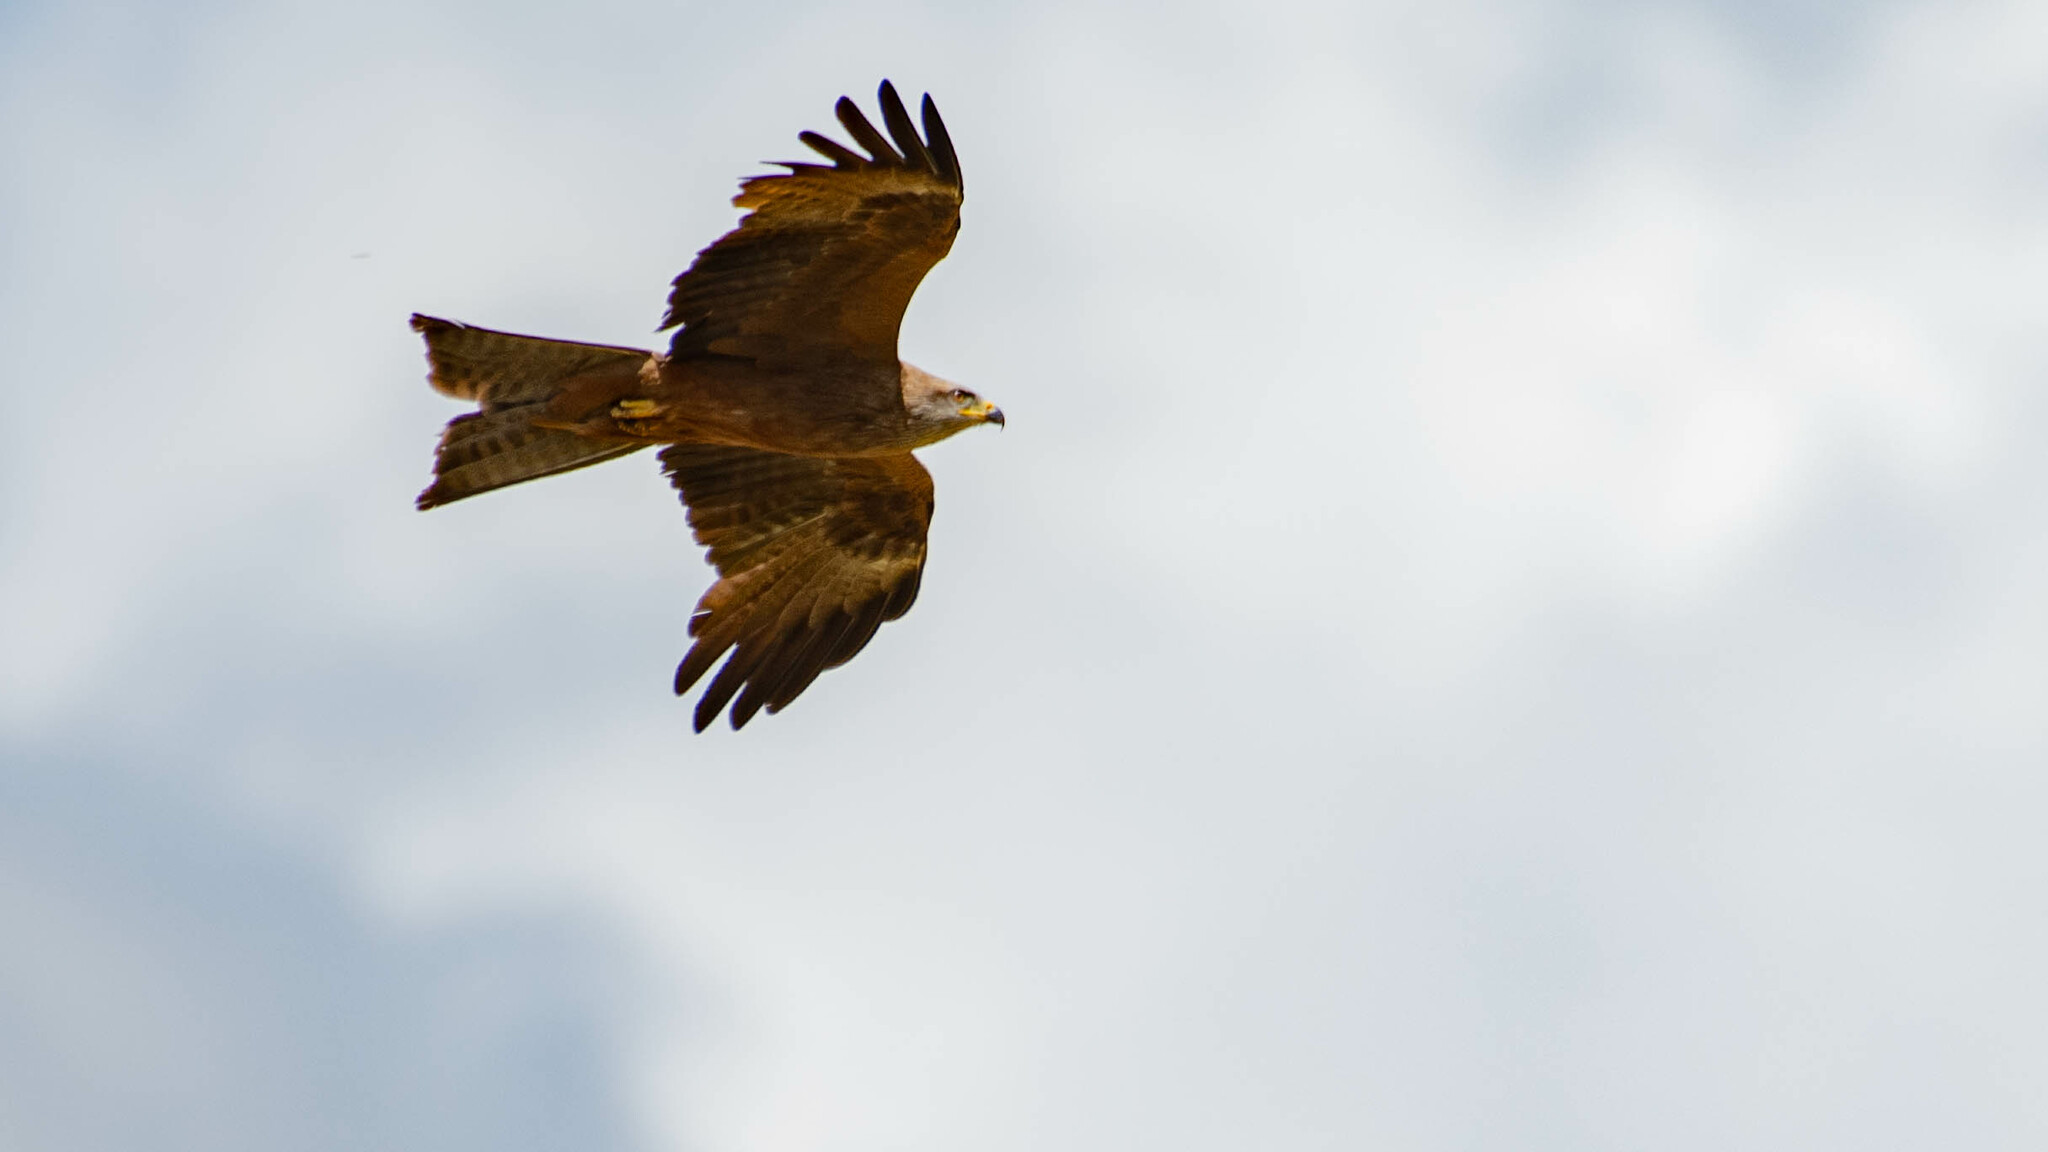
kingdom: Animalia
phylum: Chordata
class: Aves
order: Accipitriformes
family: Accipitridae
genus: Milvus
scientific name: Milvus migrans
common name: Black kite
